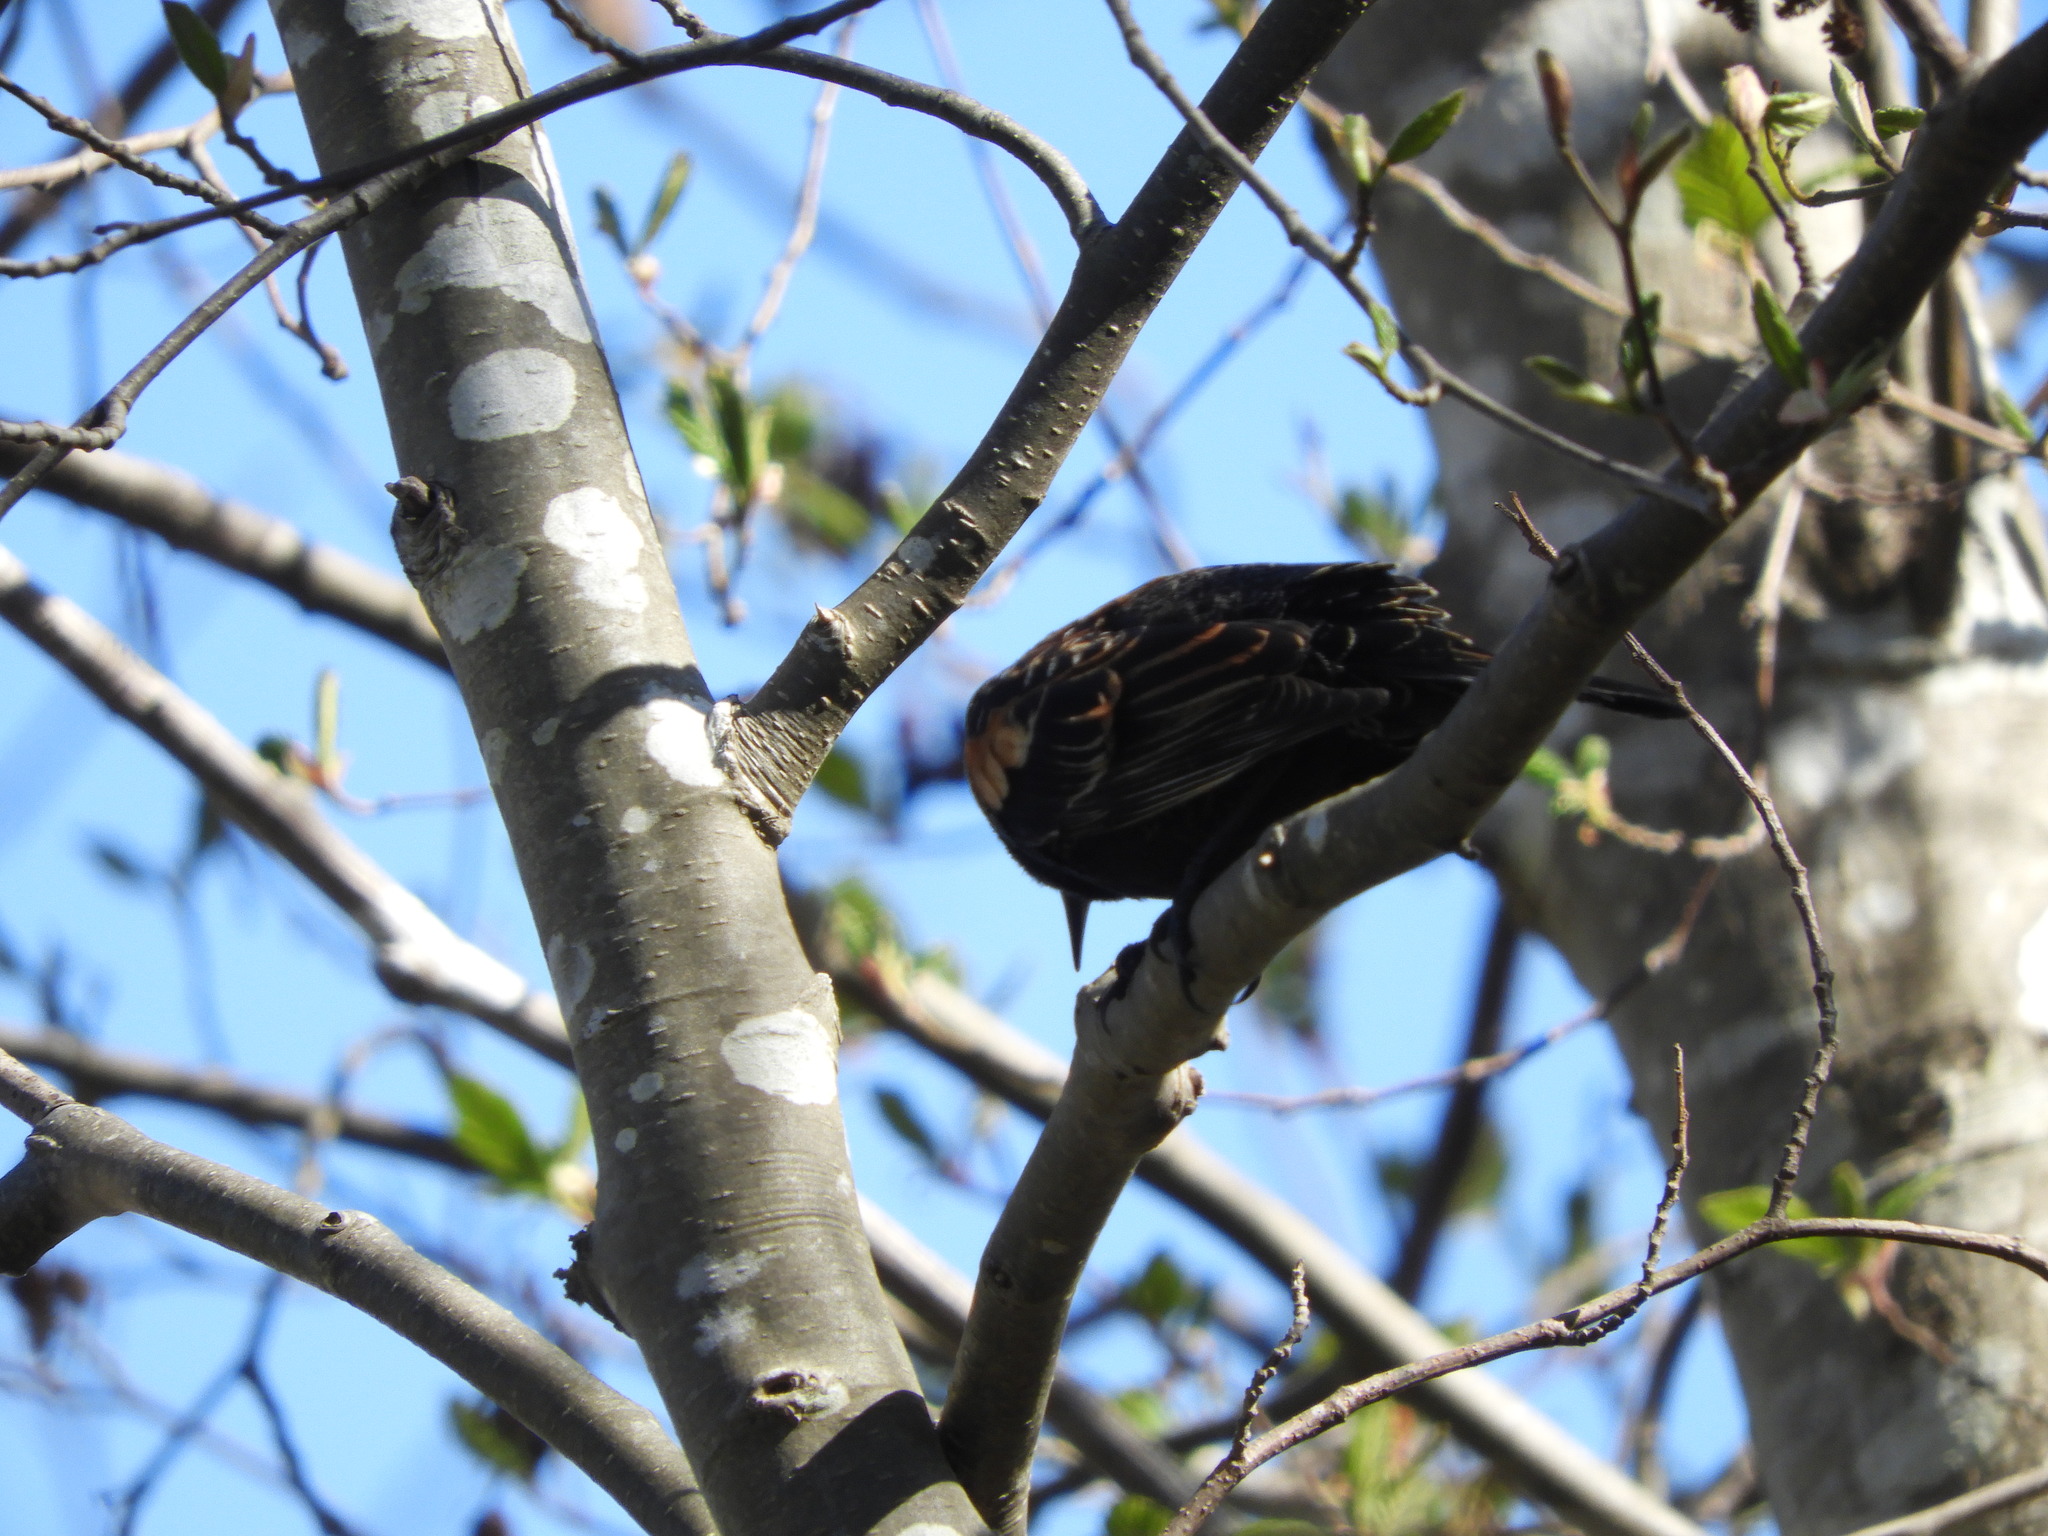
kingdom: Animalia
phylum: Chordata
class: Aves
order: Passeriformes
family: Icteridae
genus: Agelaius
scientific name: Agelaius phoeniceus
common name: Red-winged blackbird
